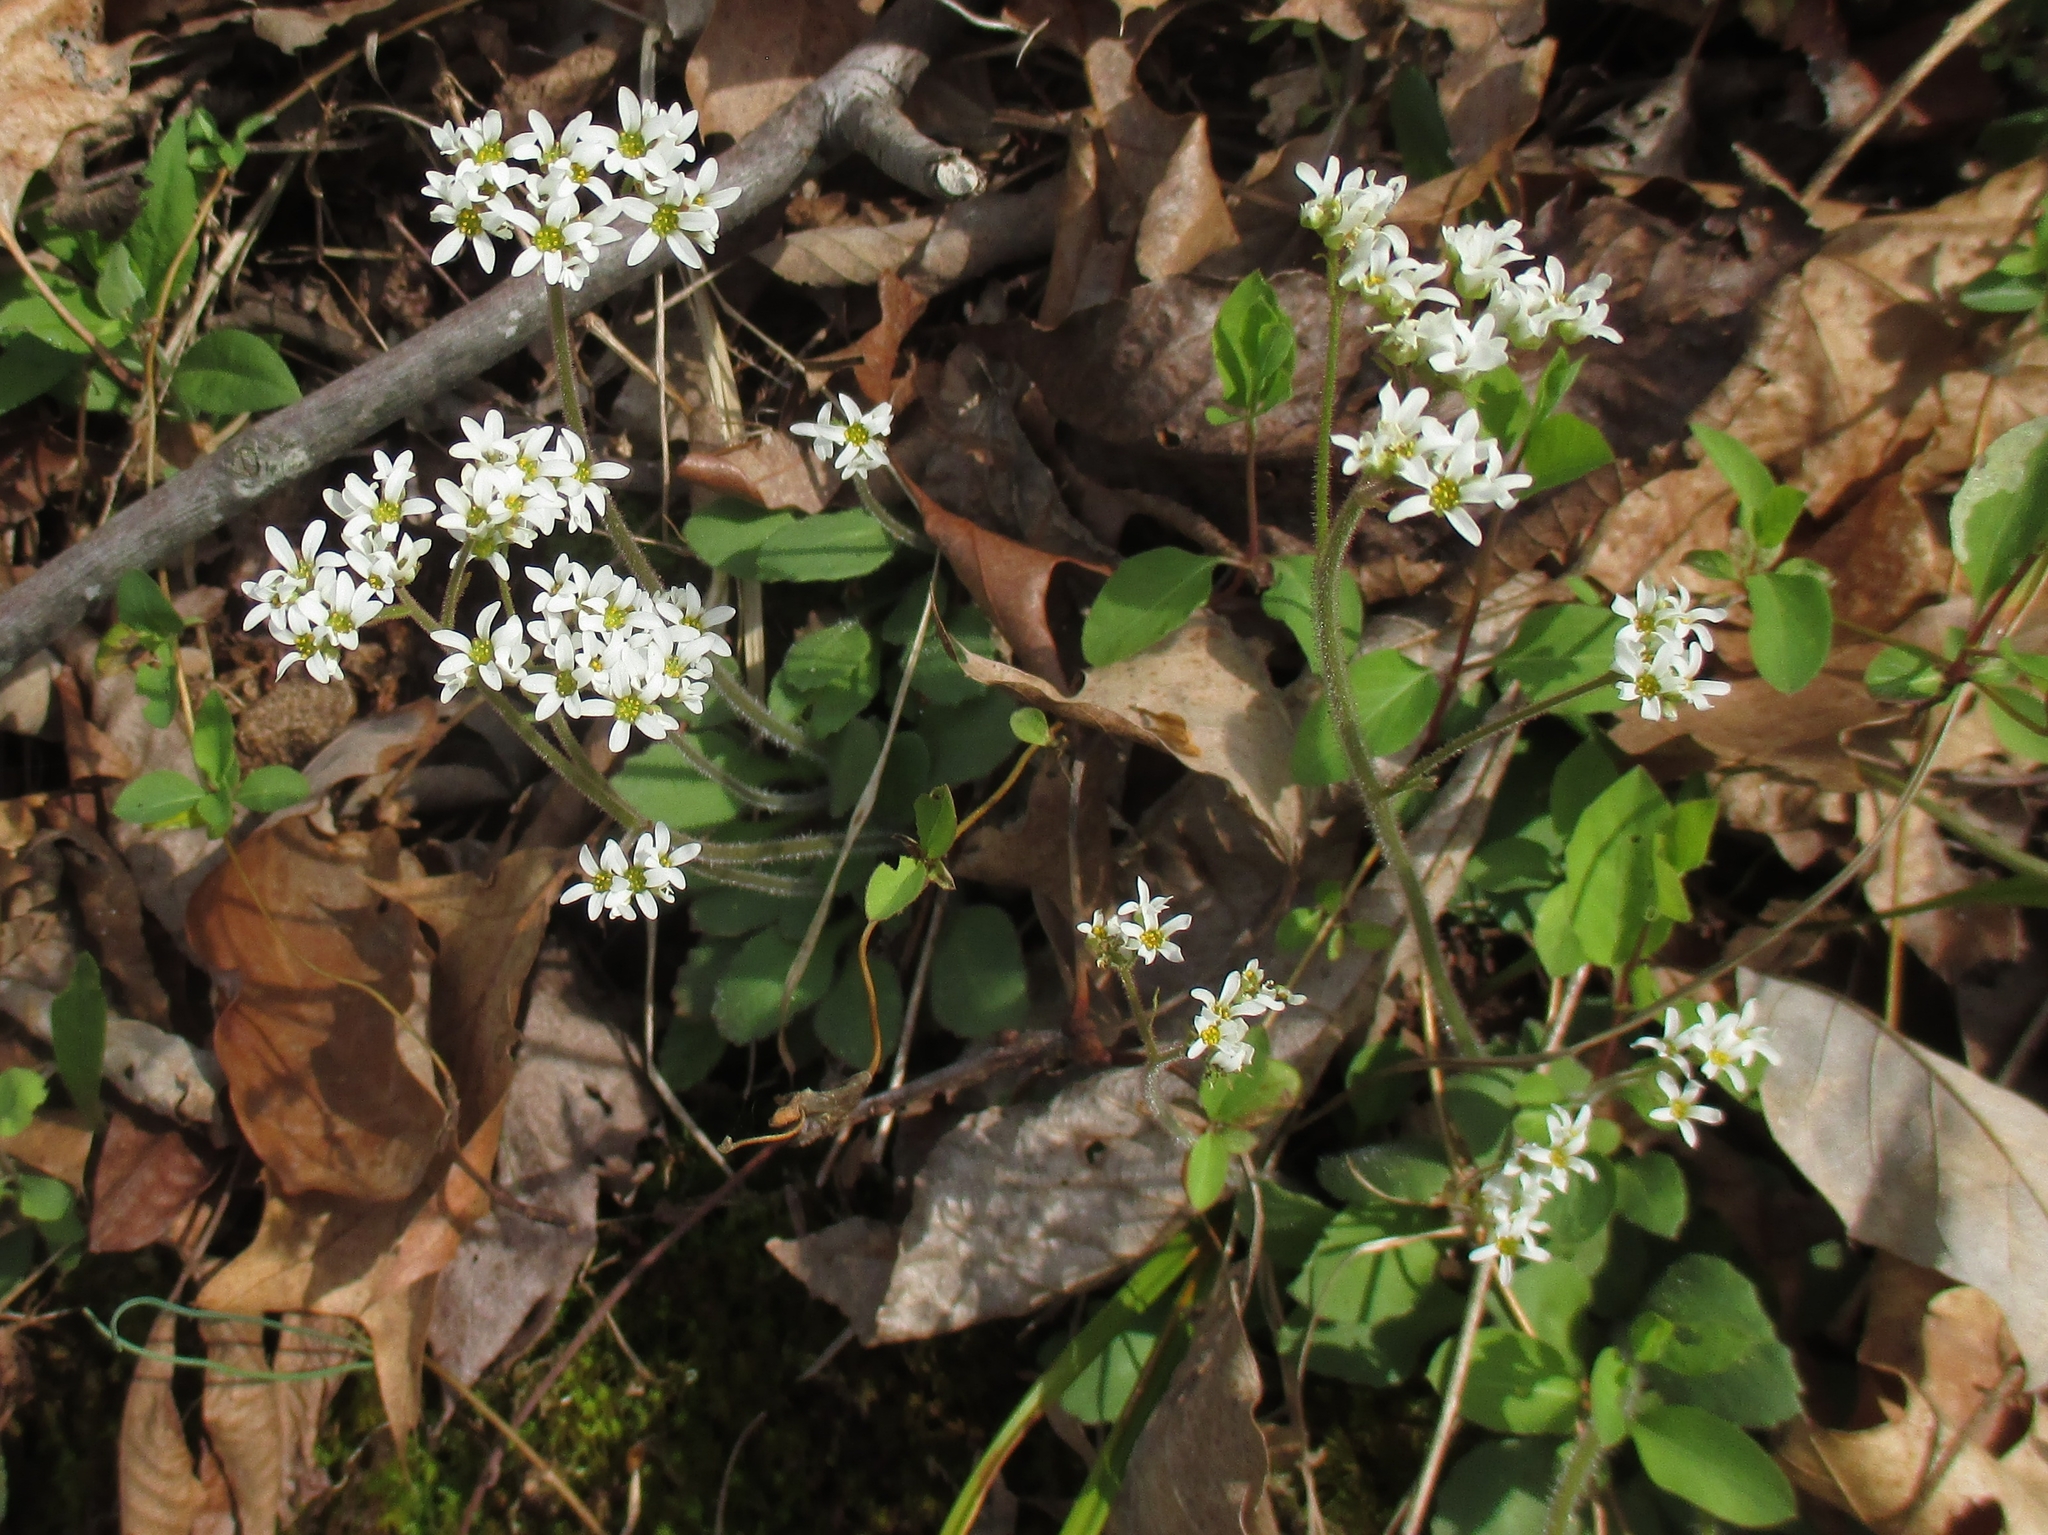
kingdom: Plantae
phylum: Tracheophyta
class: Magnoliopsida
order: Saxifragales
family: Saxifragaceae
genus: Micranthes
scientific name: Micranthes virginiensis
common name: Early saxifrage
